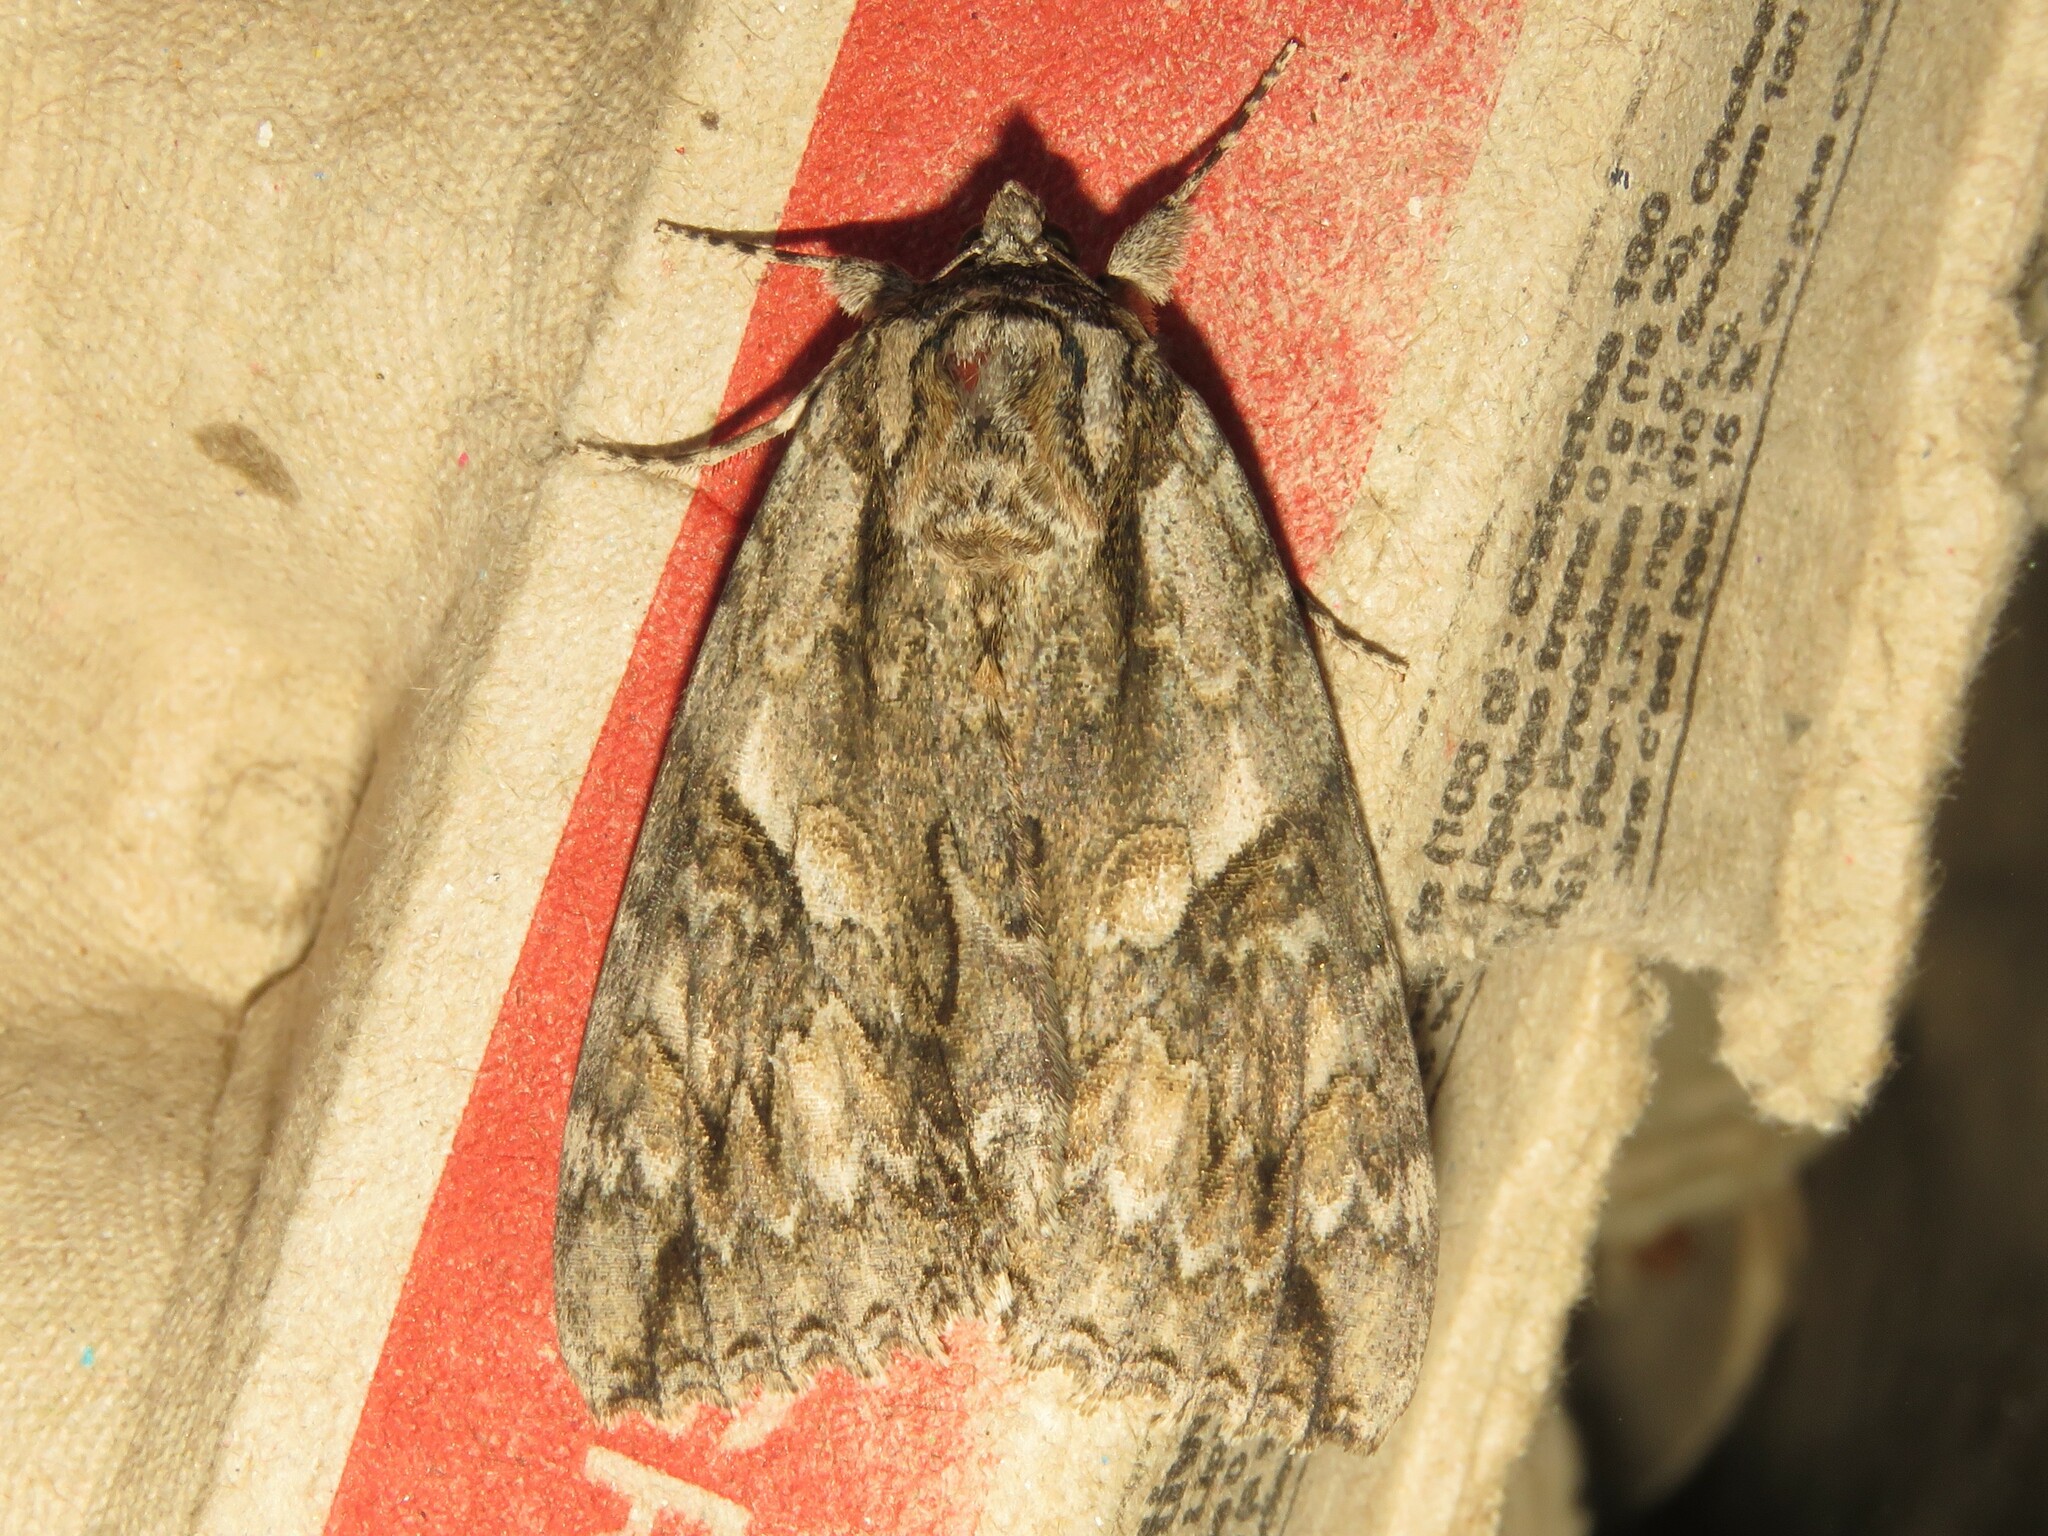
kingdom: Animalia
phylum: Arthropoda
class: Insecta
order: Lepidoptera
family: Erebidae
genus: Catocala
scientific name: Catocala parta
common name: Mother underwing
